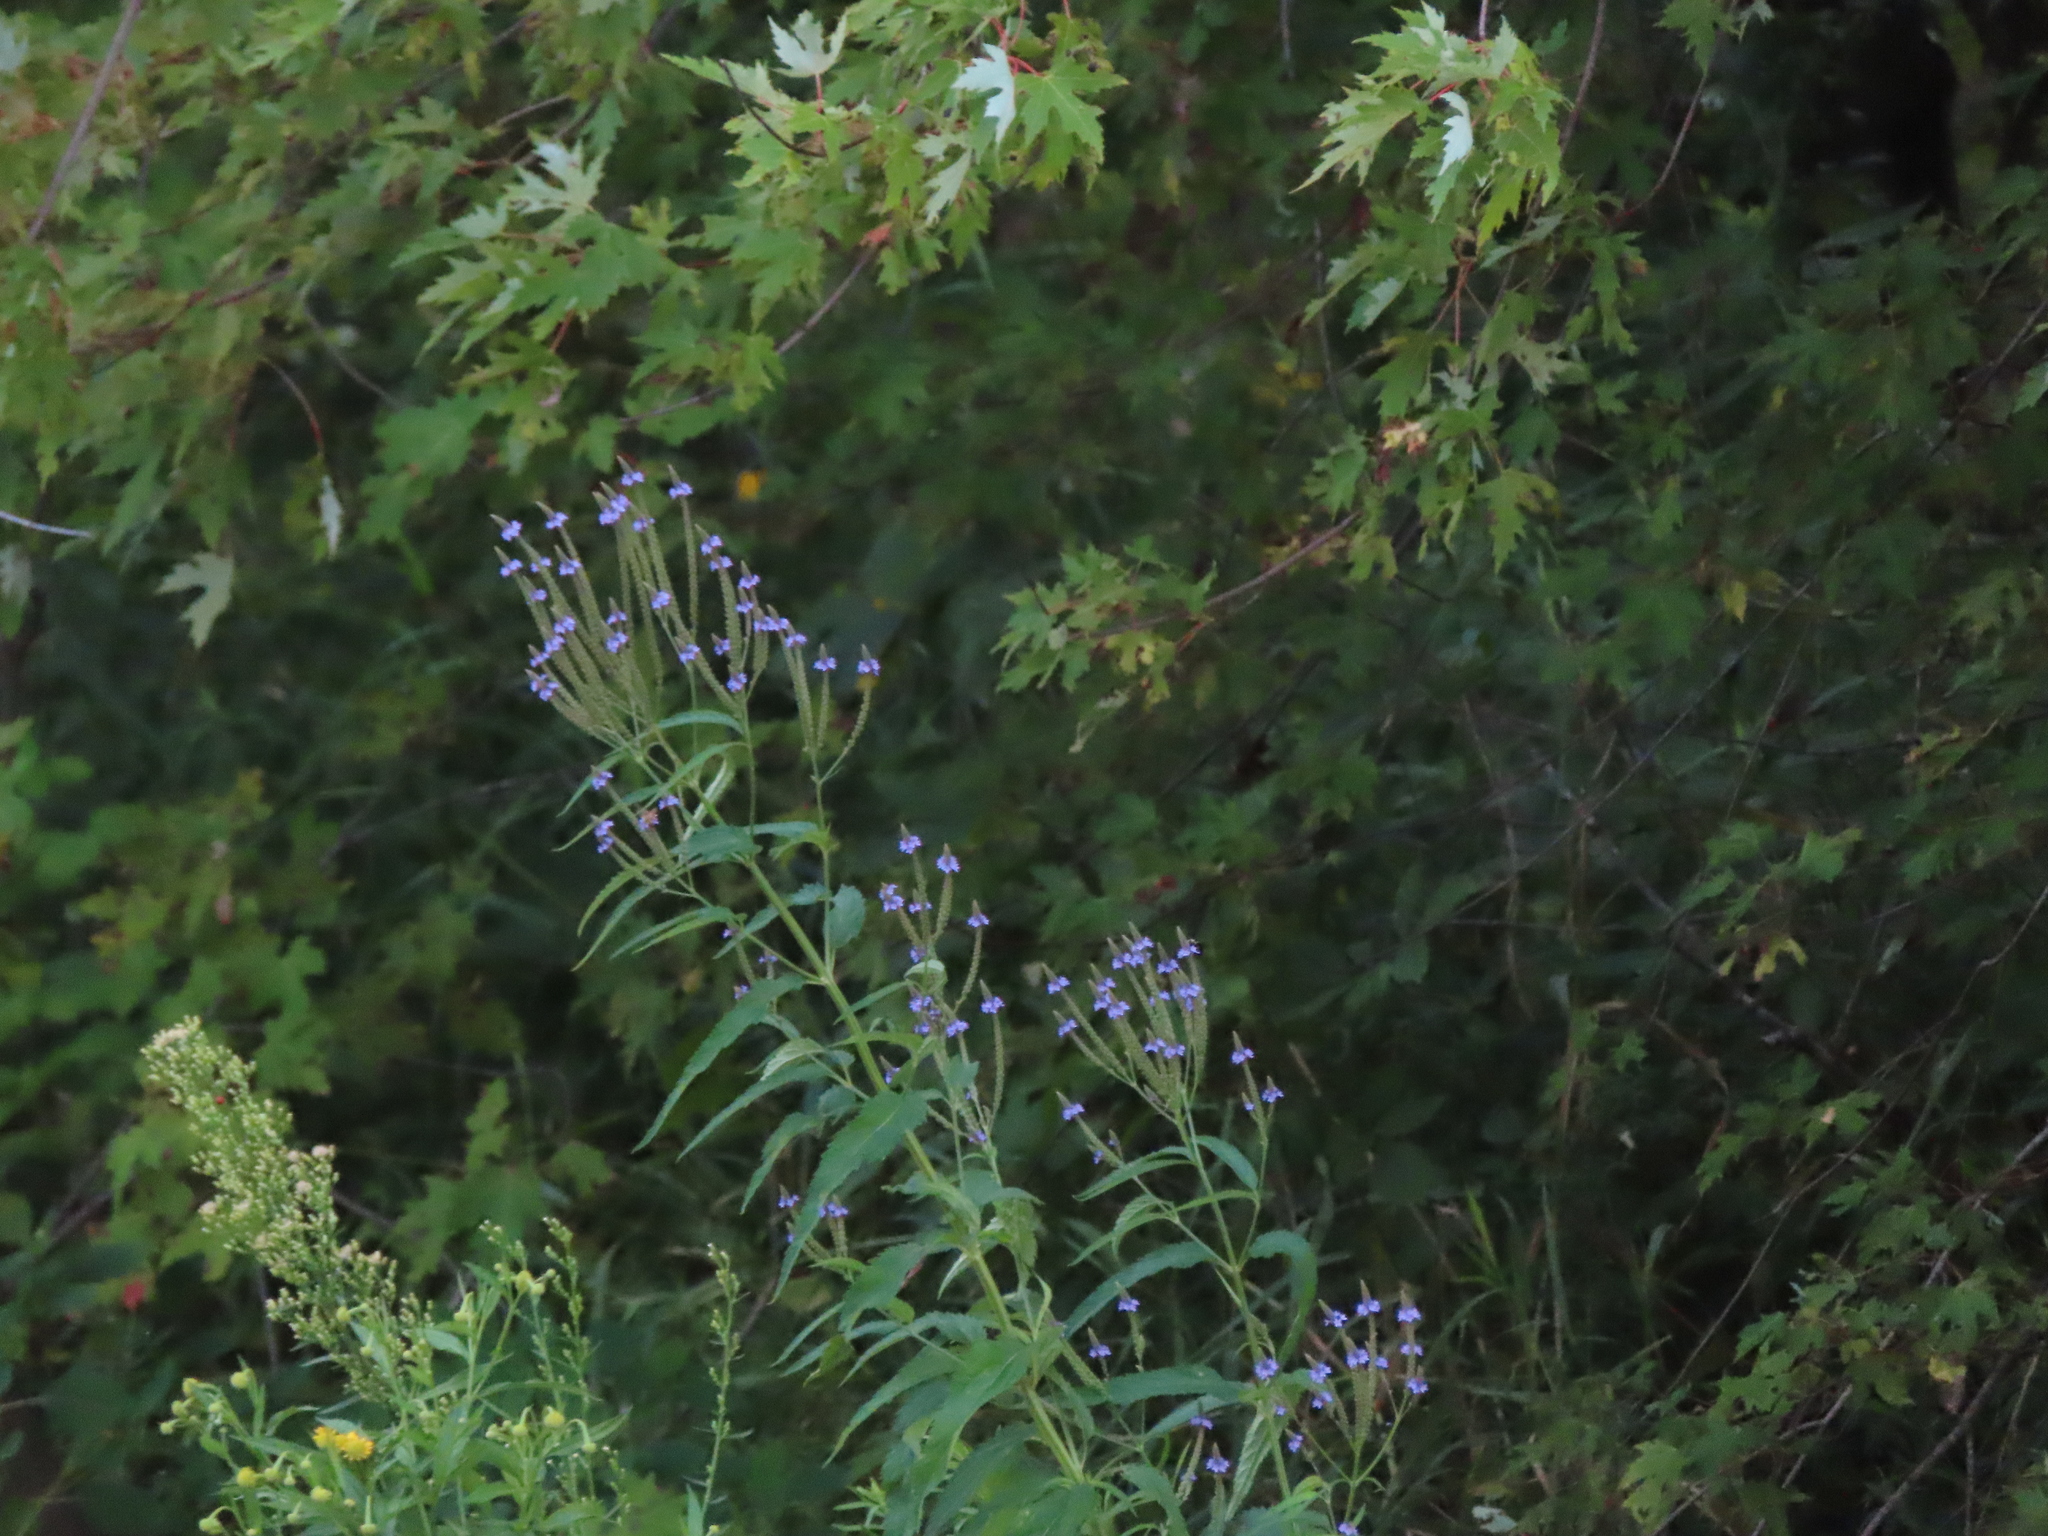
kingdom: Plantae
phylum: Tracheophyta
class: Magnoliopsida
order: Lamiales
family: Verbenaceae
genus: Verbena
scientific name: Verbena hastata
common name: American blue vervain
